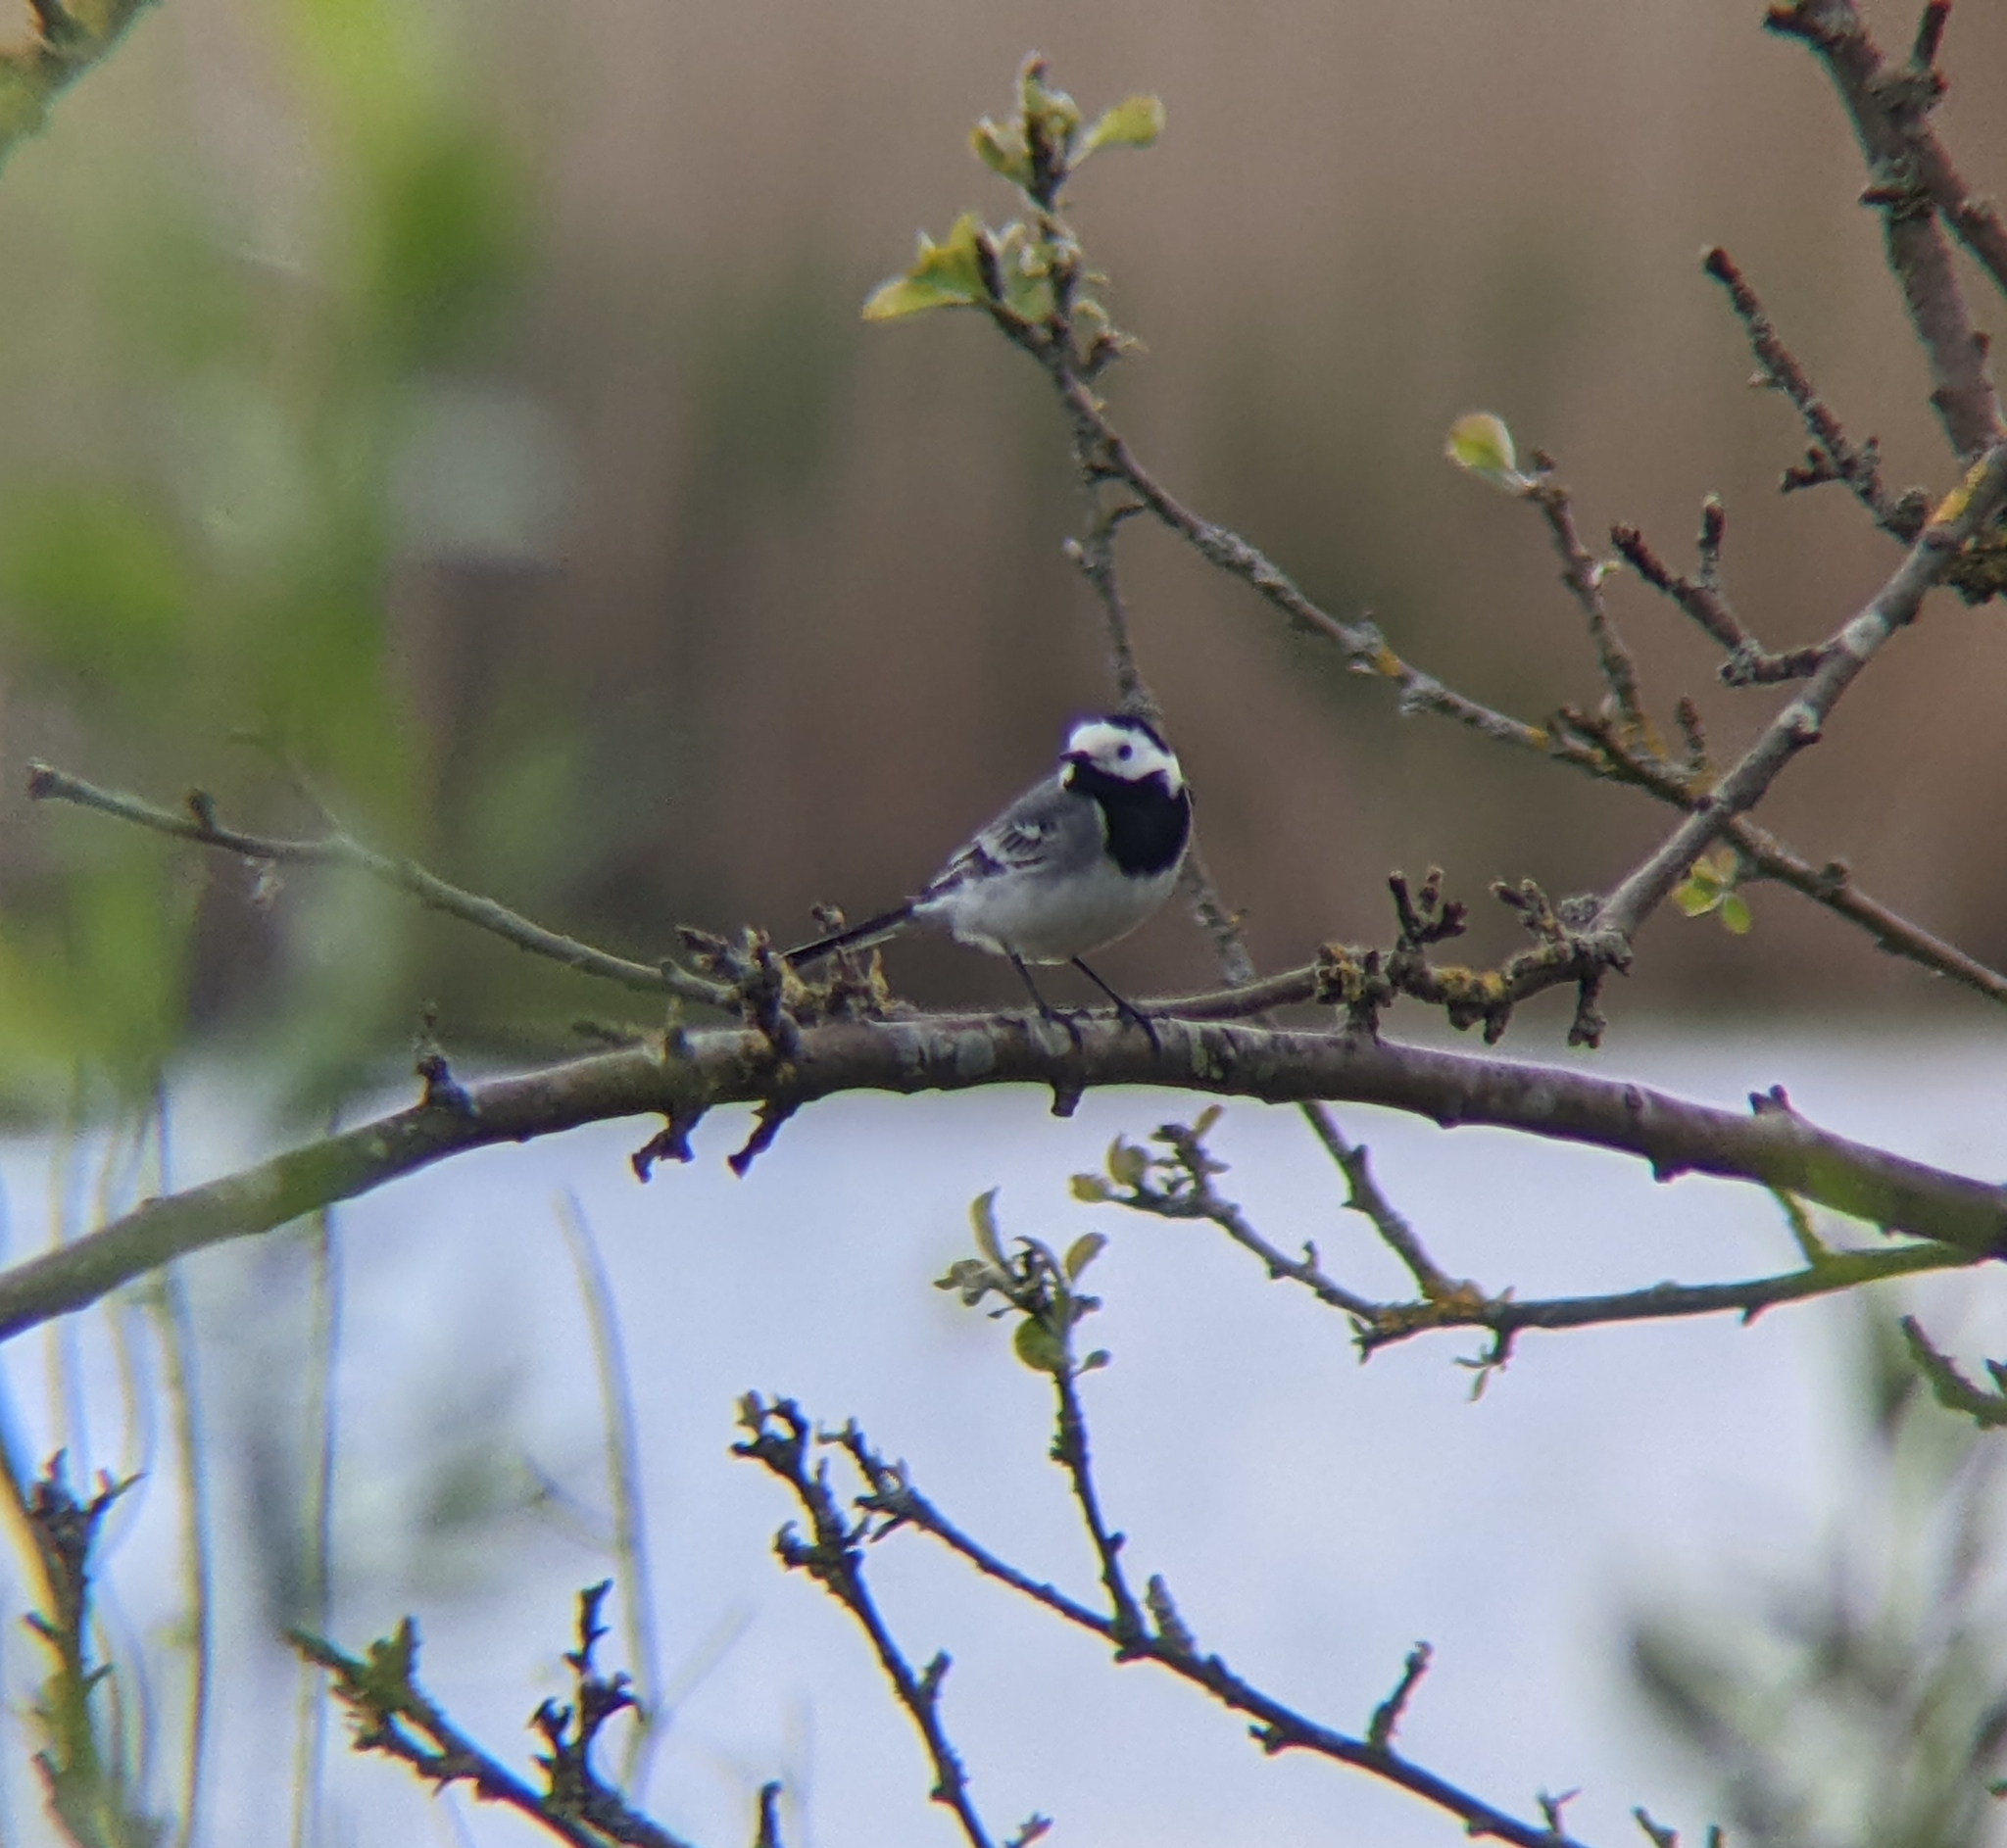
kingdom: Animalia
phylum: Chordata
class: Aves
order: Passeriformes
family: Motacillidae
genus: Motacilla
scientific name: Motacilla alba
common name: White wagtail
